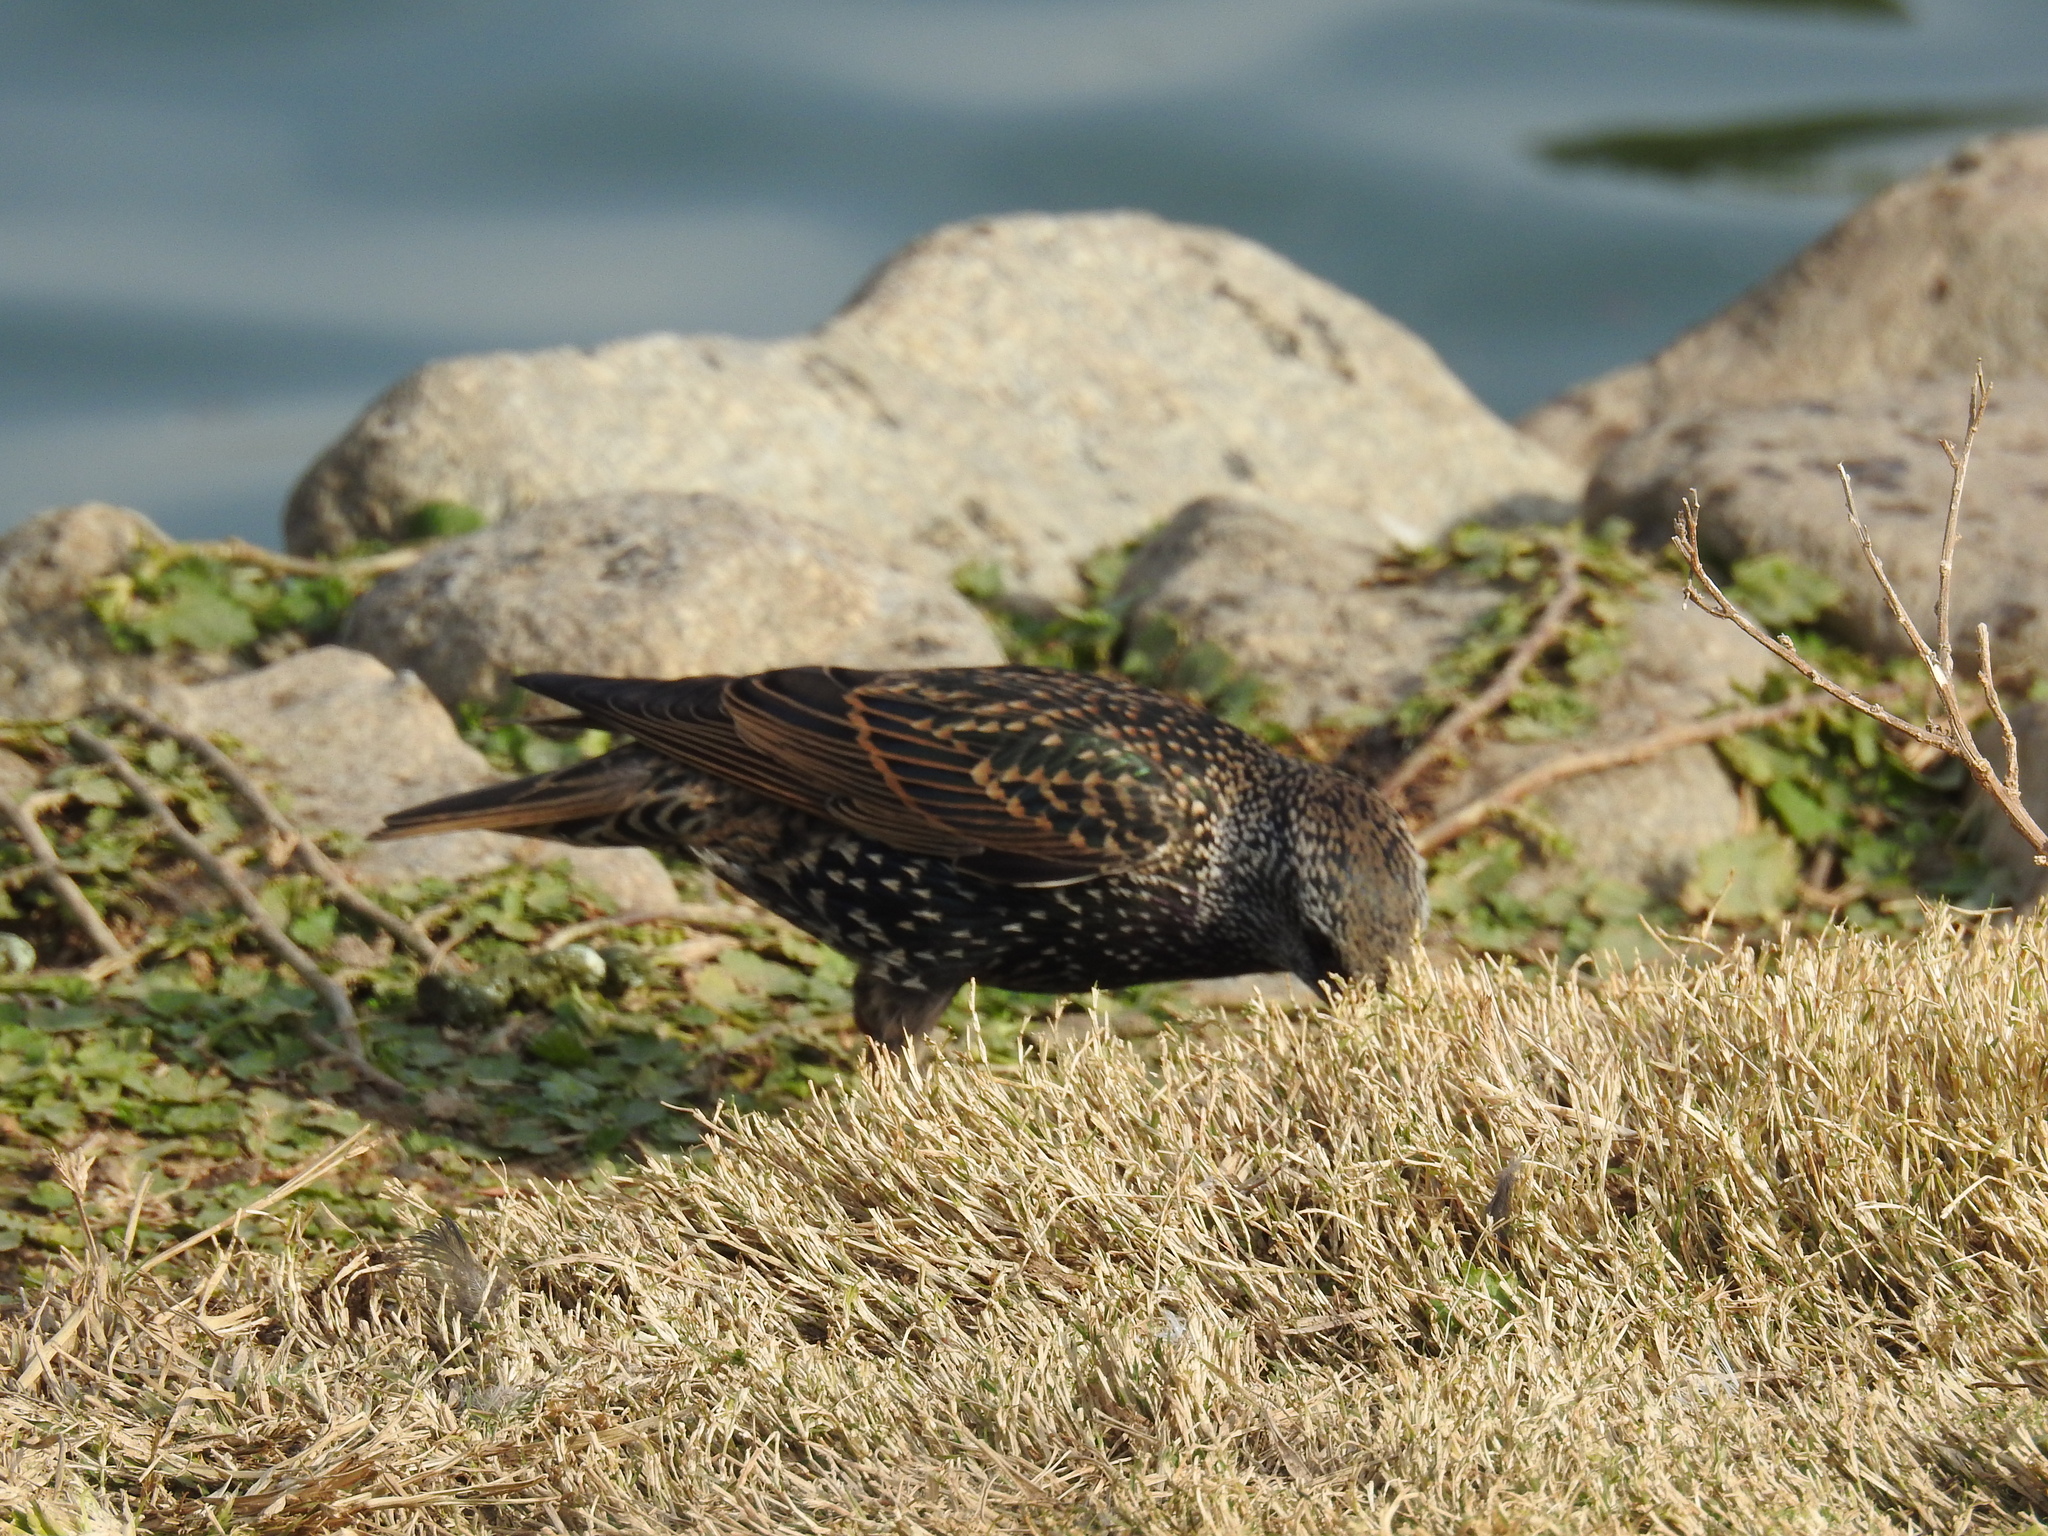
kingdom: Animalia
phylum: Chordata
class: Aves
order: Passeriformes
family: Sturnidae
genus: Sturnus
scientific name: Sturnus vulgaris
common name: Common starling
